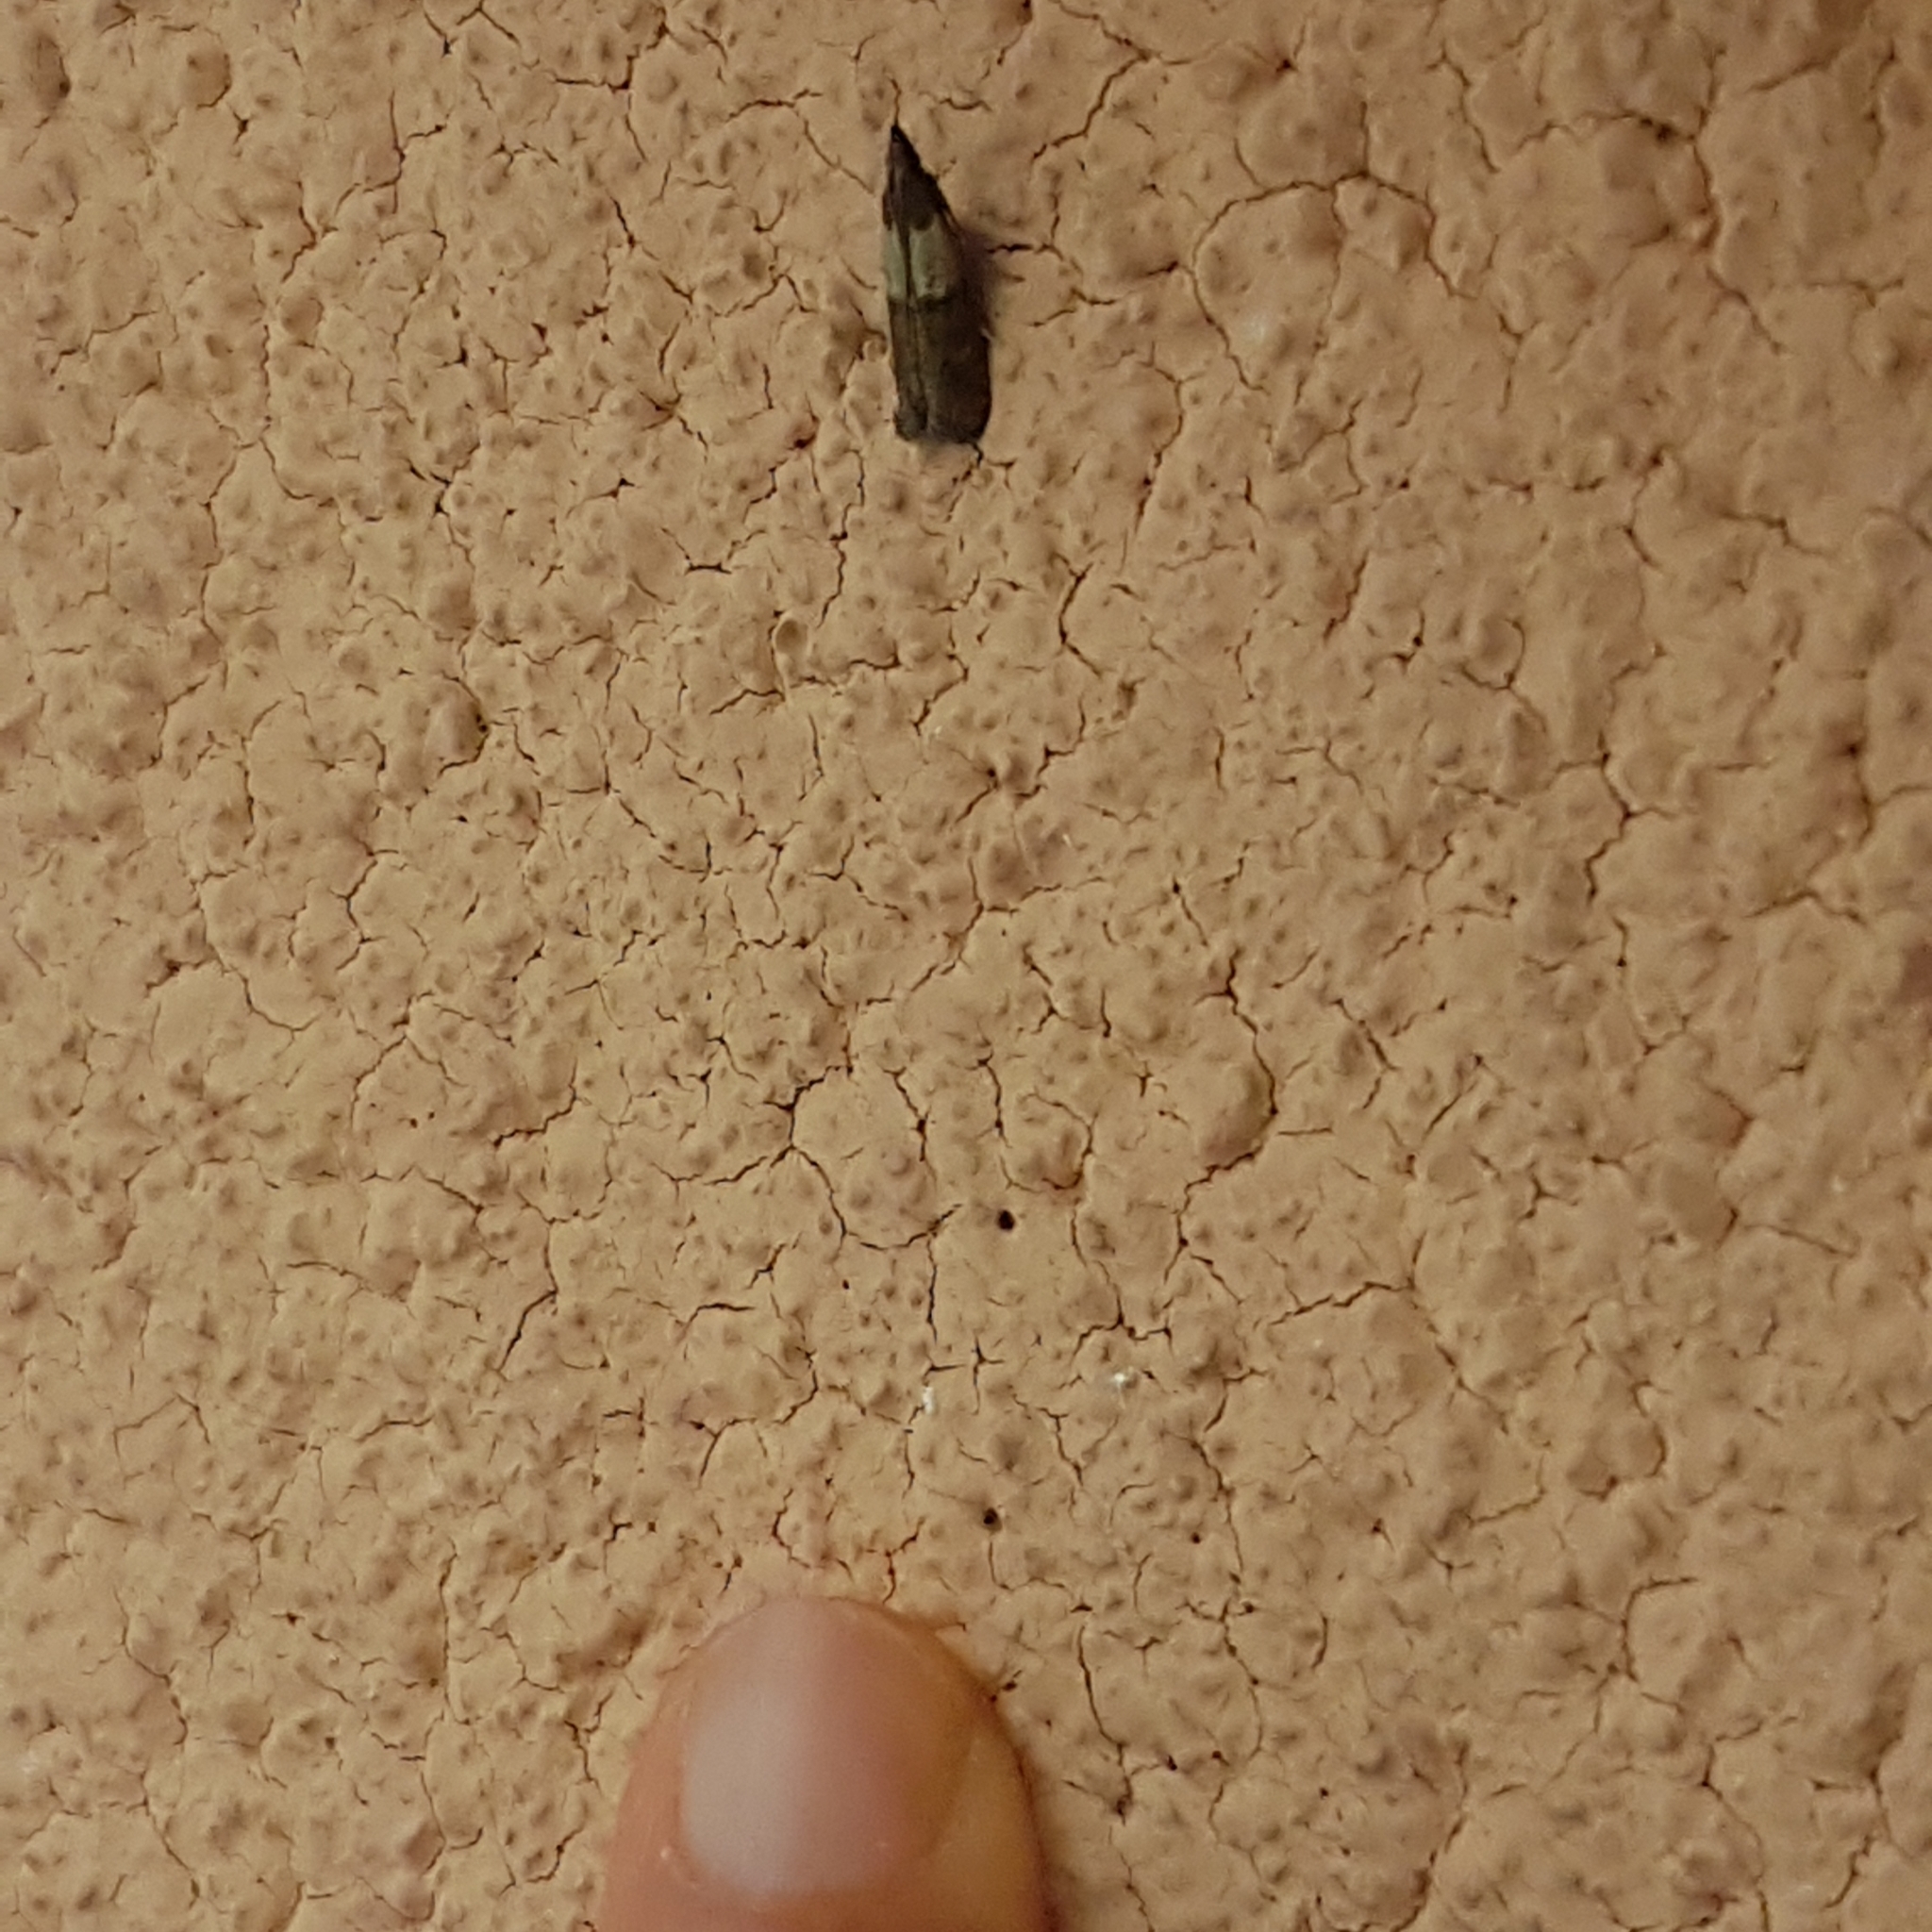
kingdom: Animalia
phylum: Arthropoda
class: Insecta
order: Lepidoptera
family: Pyralidae
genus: Plodia
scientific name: Plodia interpunctella
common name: Indian meal moth
